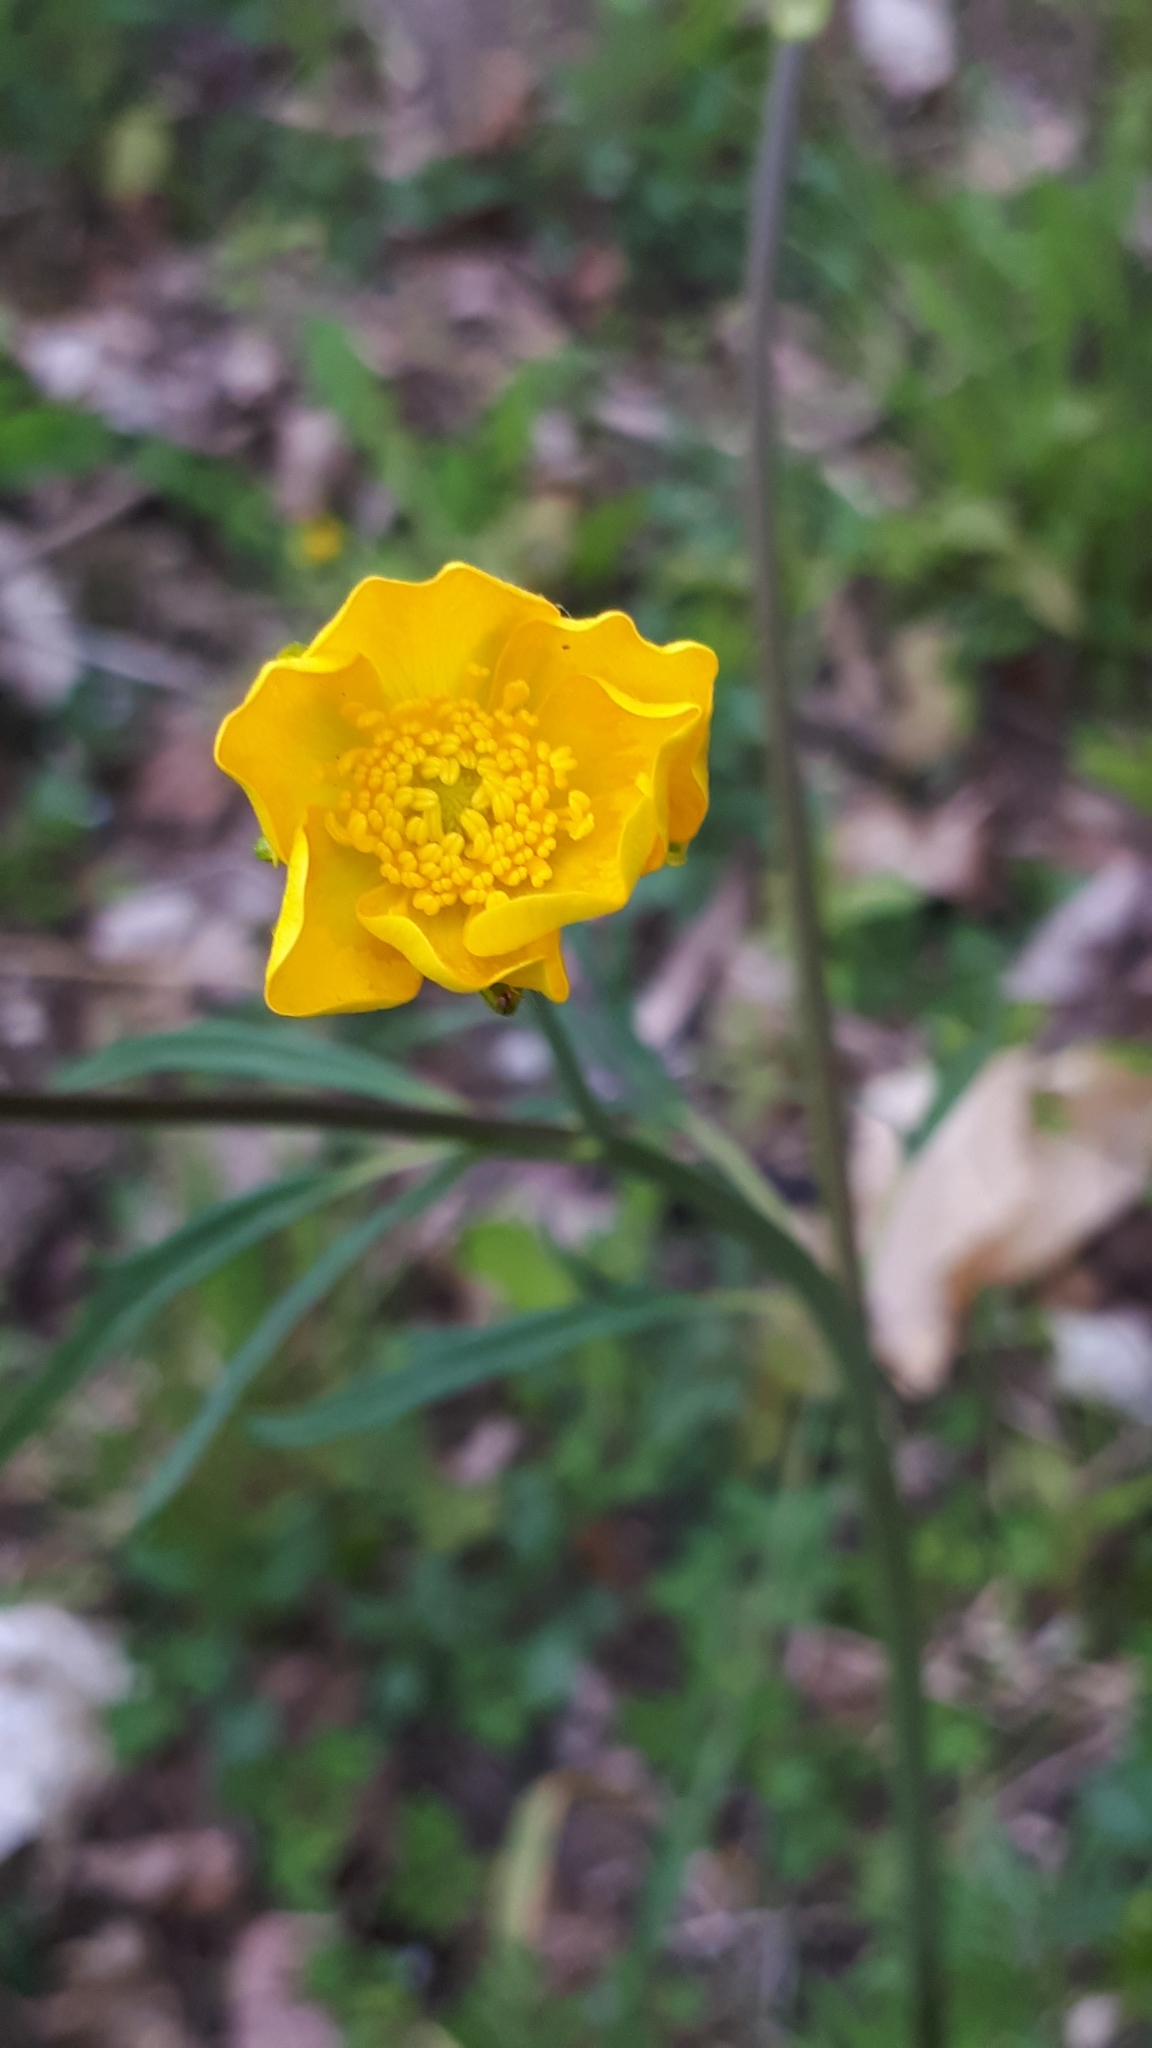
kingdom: Plantae
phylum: Tracheophyta
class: Magnoliopsida
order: Ranunculales
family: Ranunculaceae
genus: Ranunculus
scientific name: Ranunculus acris
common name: Meadow buttercup
